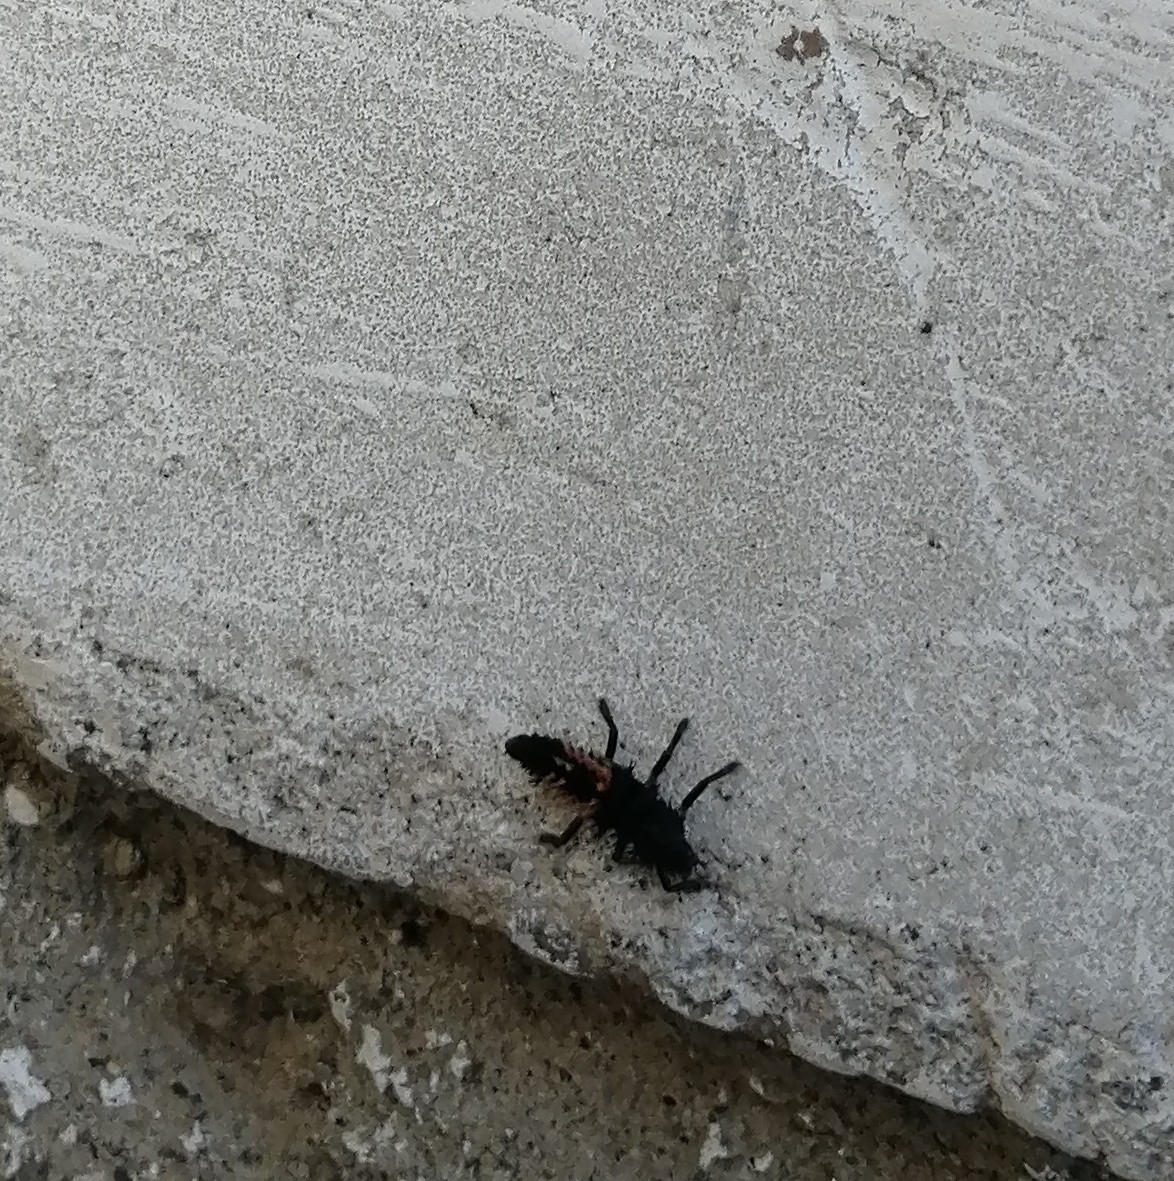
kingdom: Animalia
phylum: Arthropoda
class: Insecta
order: Coleoptera
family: Coccinellidae
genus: Harmonia
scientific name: Harmonia axyridis
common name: Harlequin ladybird
